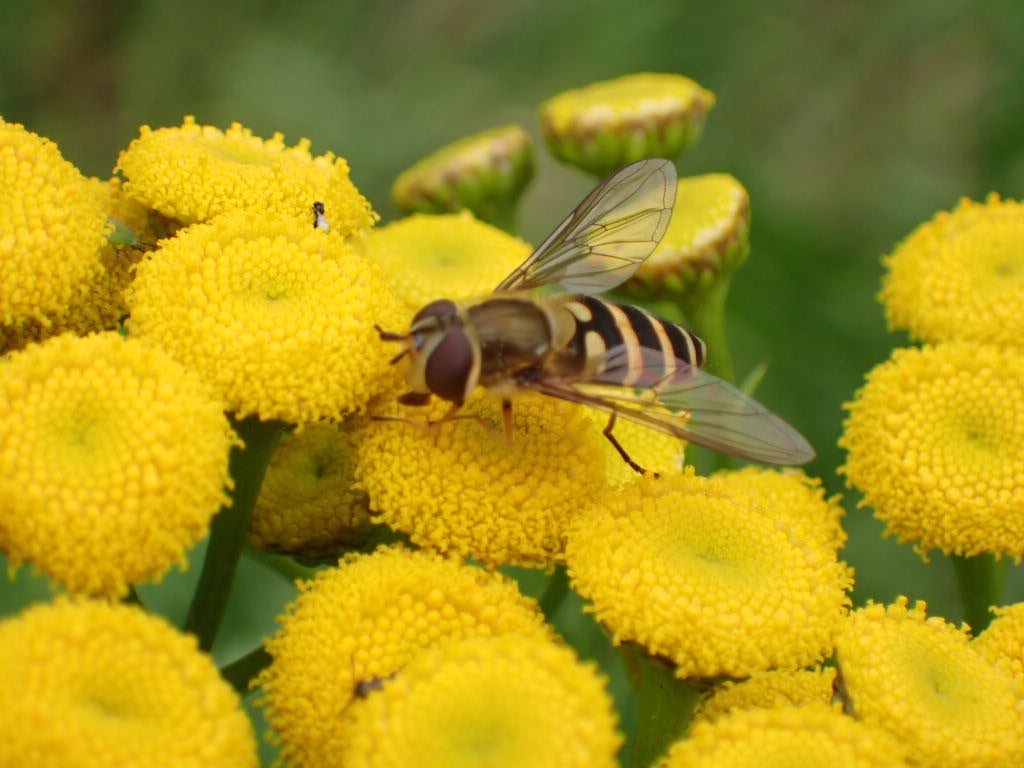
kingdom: Animalia
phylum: Arthropoda
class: Insecta
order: Diptera
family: Syrphidae
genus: Syrphus
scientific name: Syrphus
